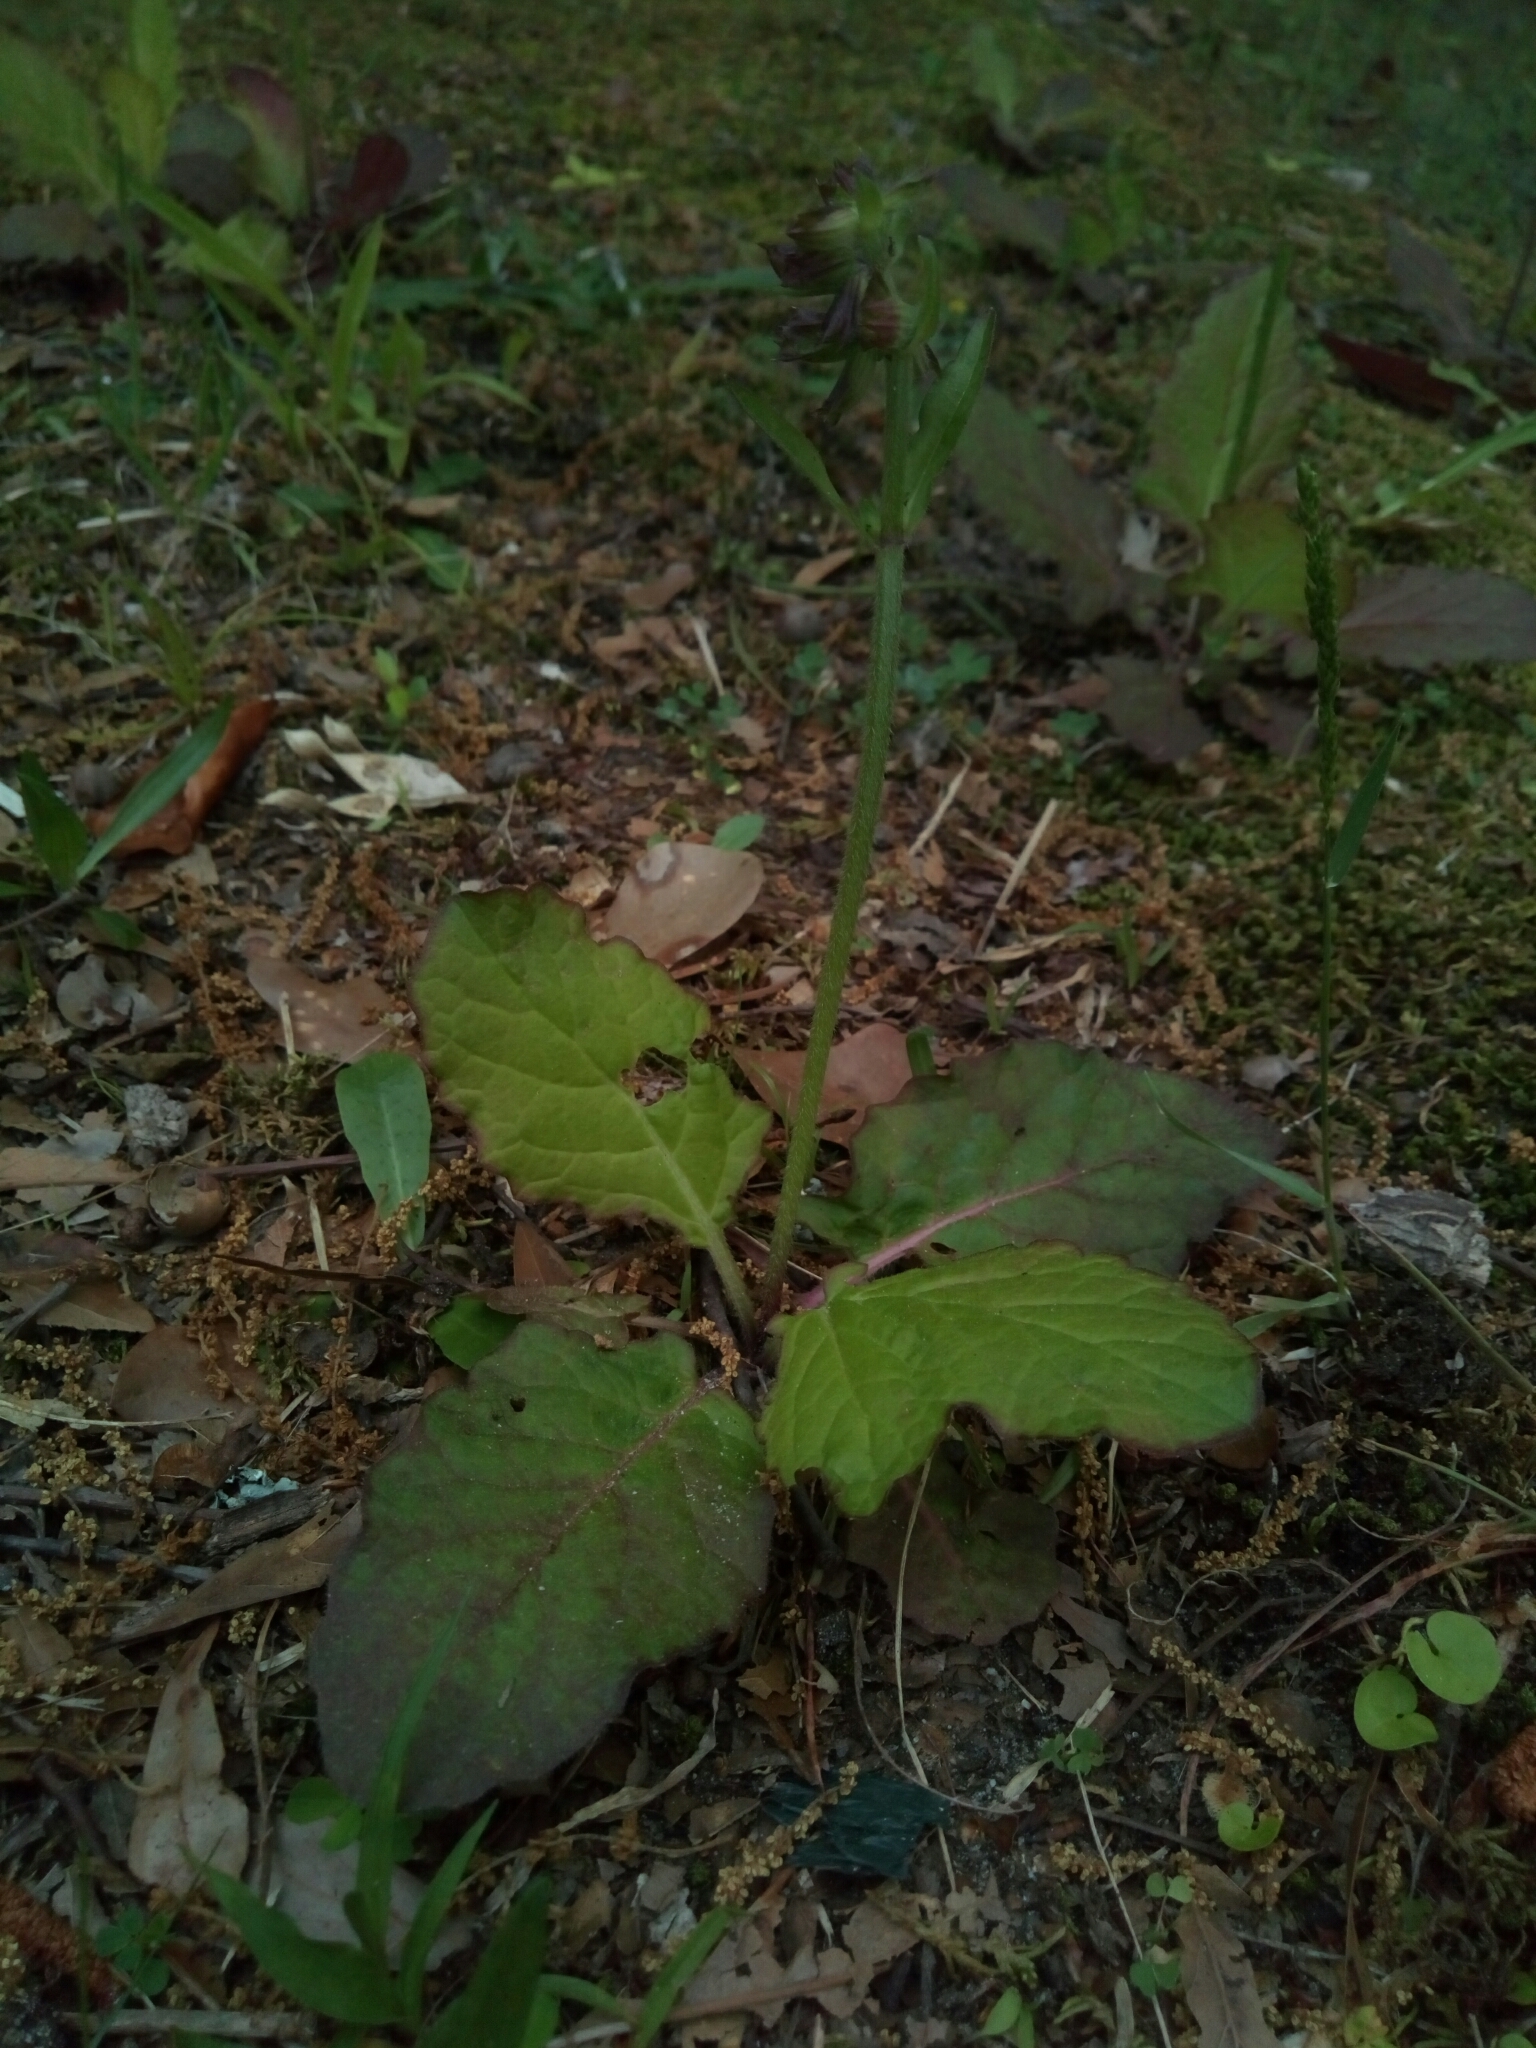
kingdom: Plantae
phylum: Tracheophyta
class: Magnoliopsida
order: Lamiales
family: Lamiaceae
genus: Salvia
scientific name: Salvia lyrata
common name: Cancerweed
